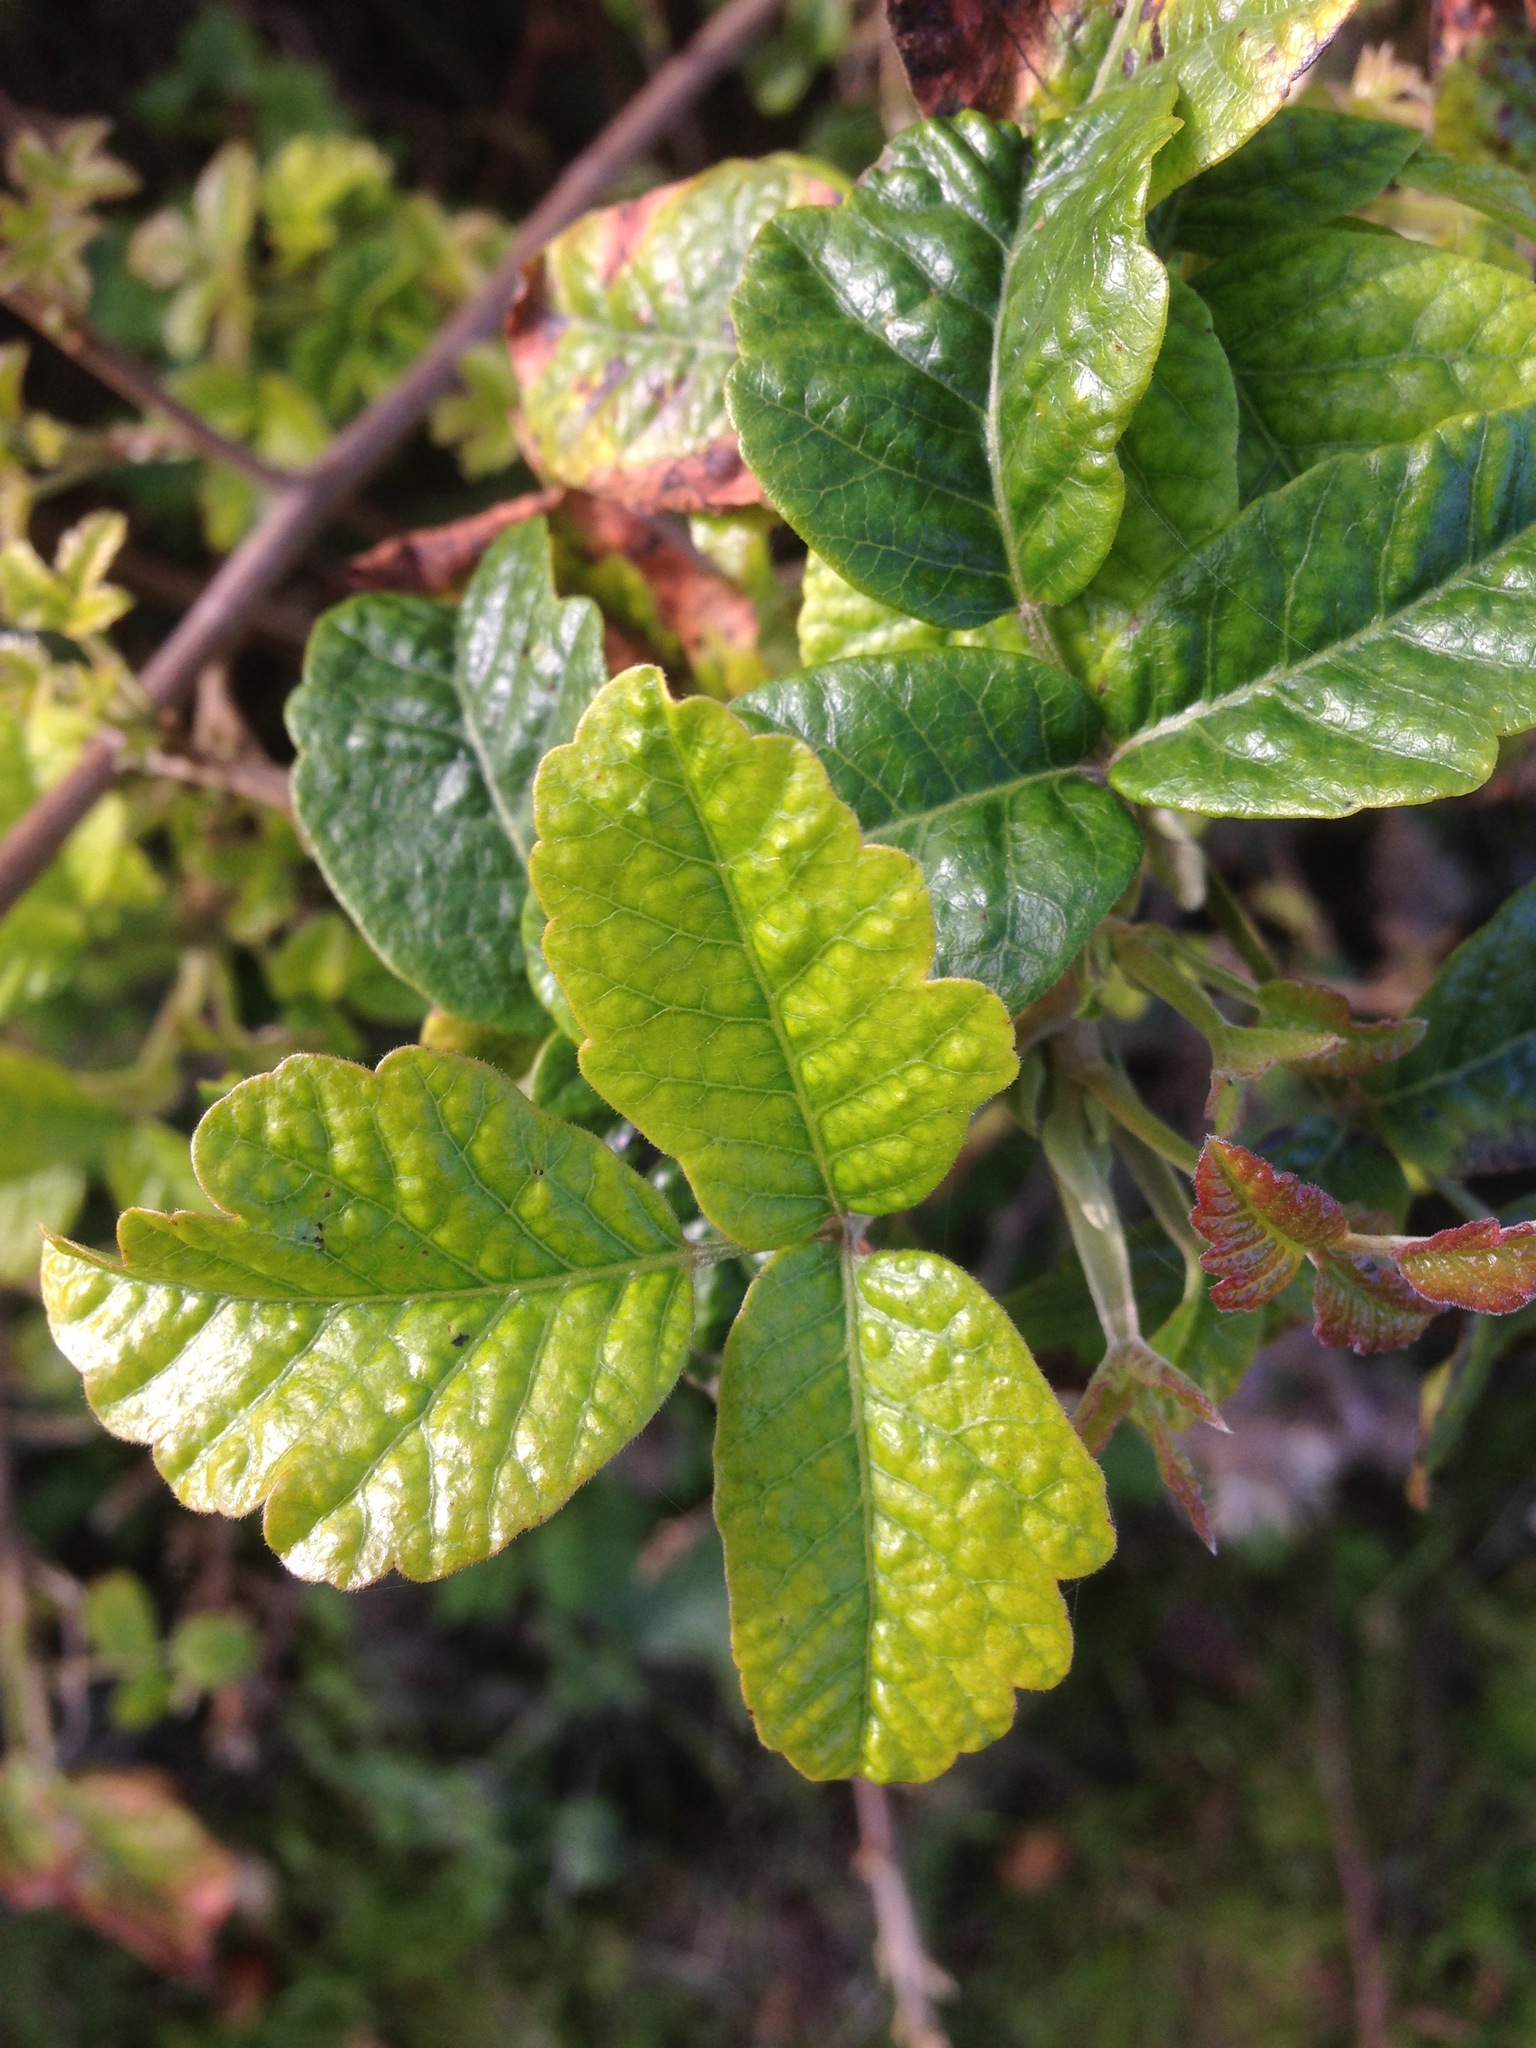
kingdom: Plantae
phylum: Tracheophyta
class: Magnoliopsida
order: Sapindales
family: Anacardiaceae
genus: Toxicodendron
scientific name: Toxicodendron diversilobum
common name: Pacific poison-oak
